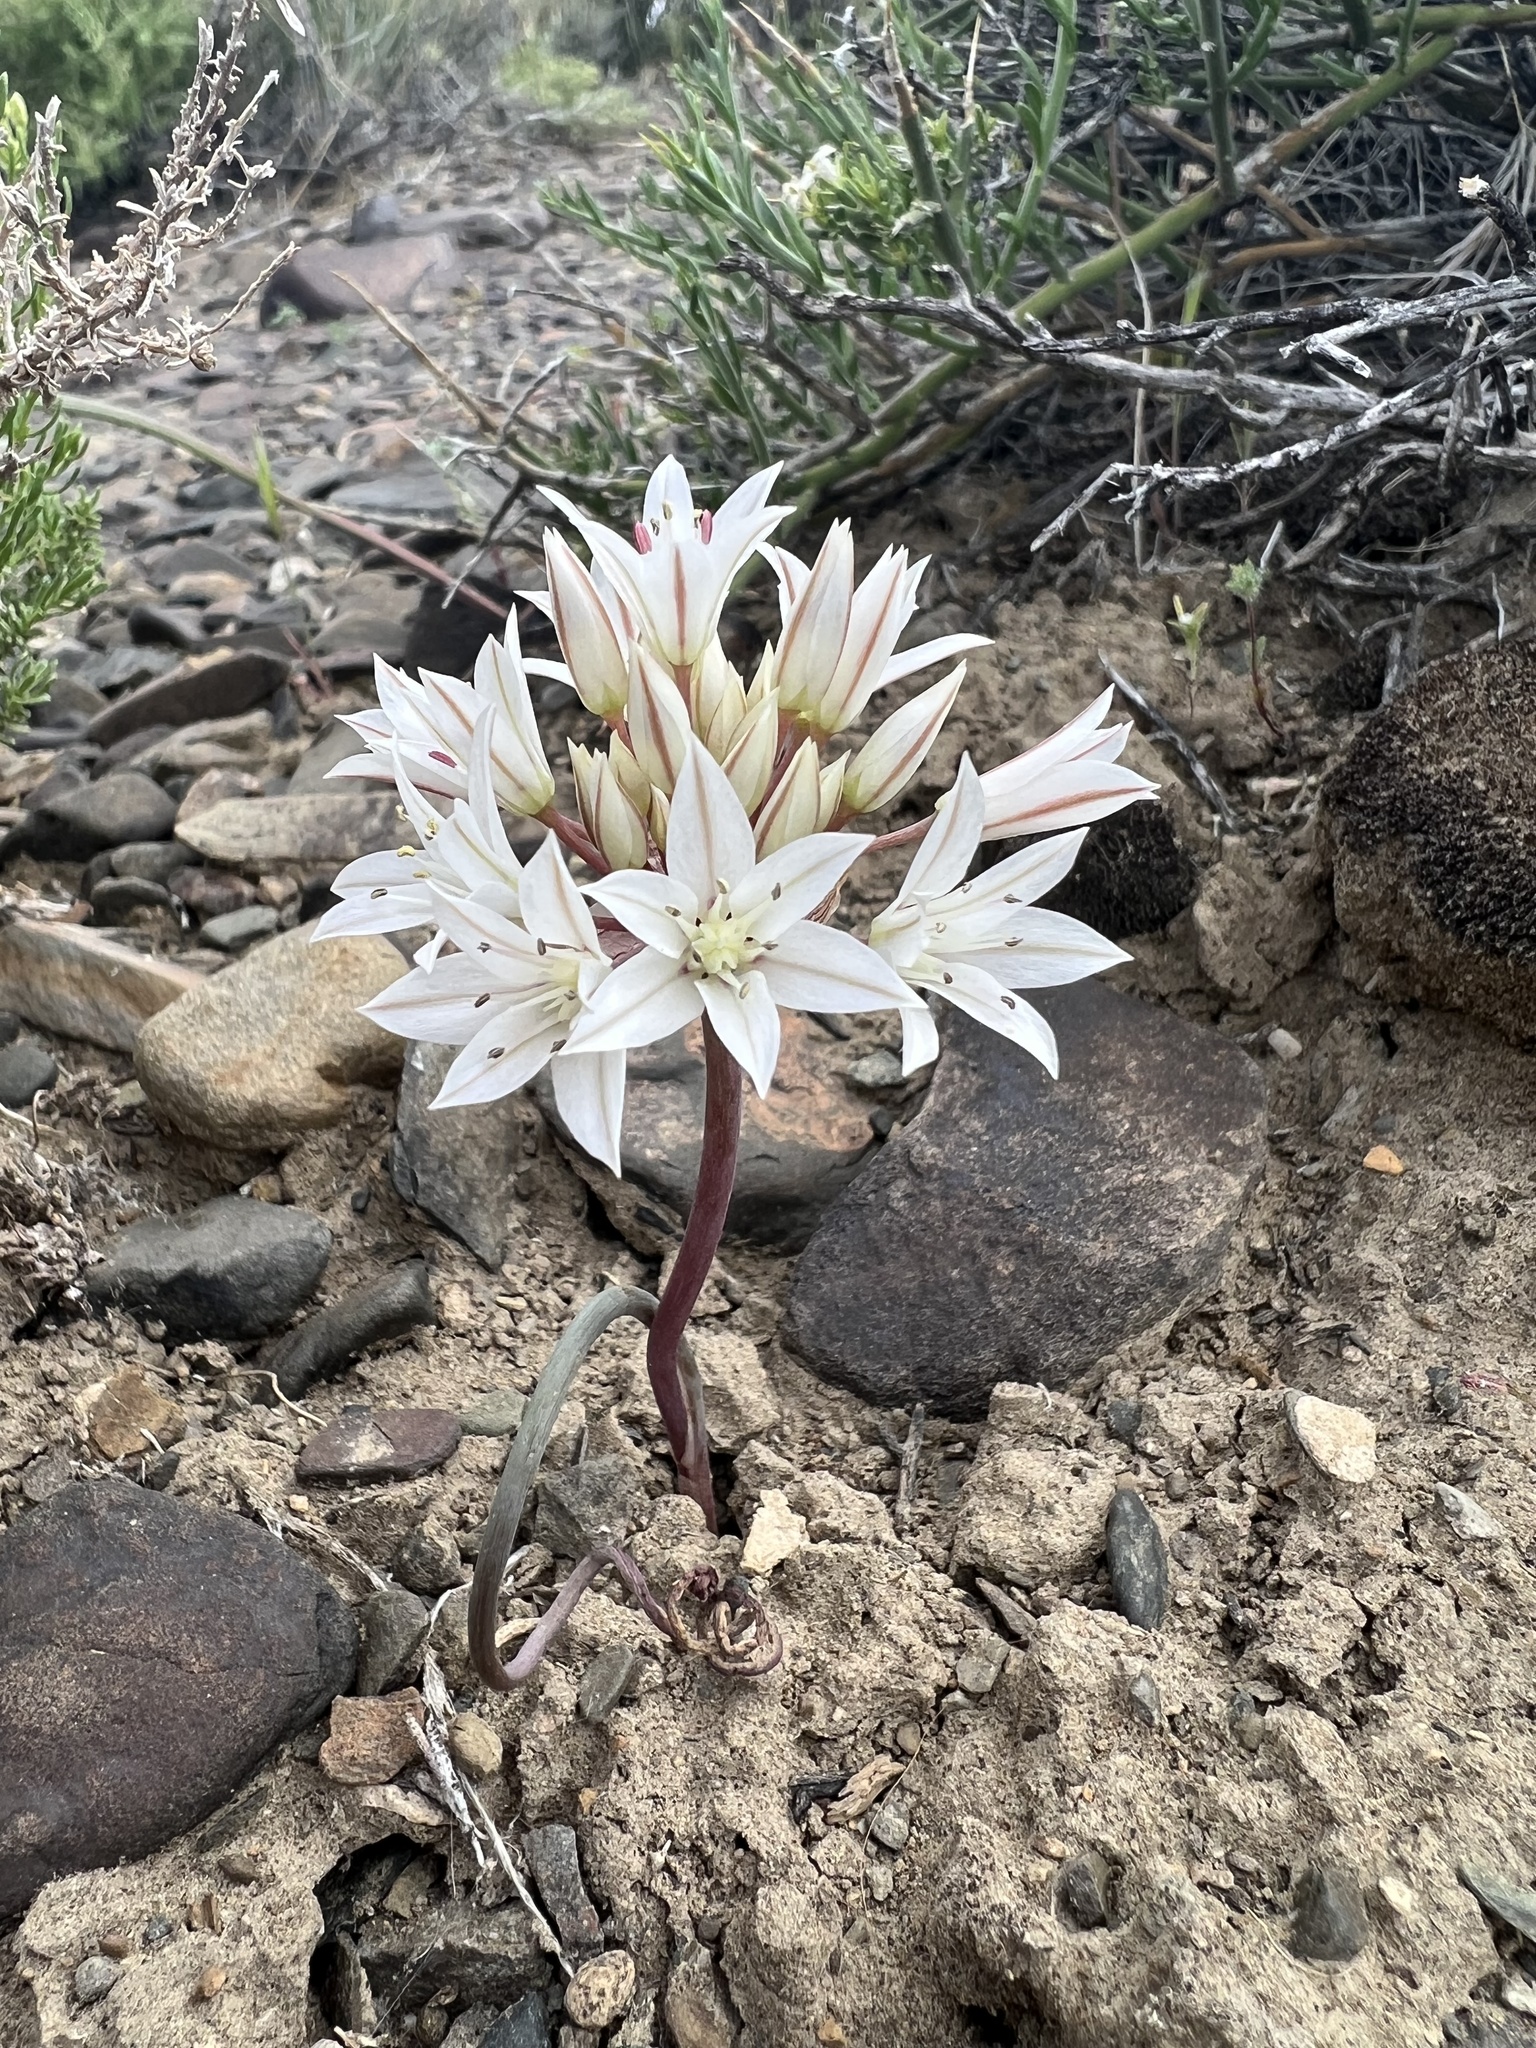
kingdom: Plantae
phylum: Tracheophyta
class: Liliopsida
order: Asparagales
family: Amaryllidaceae
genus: Allium
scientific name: Allium atrorubens
